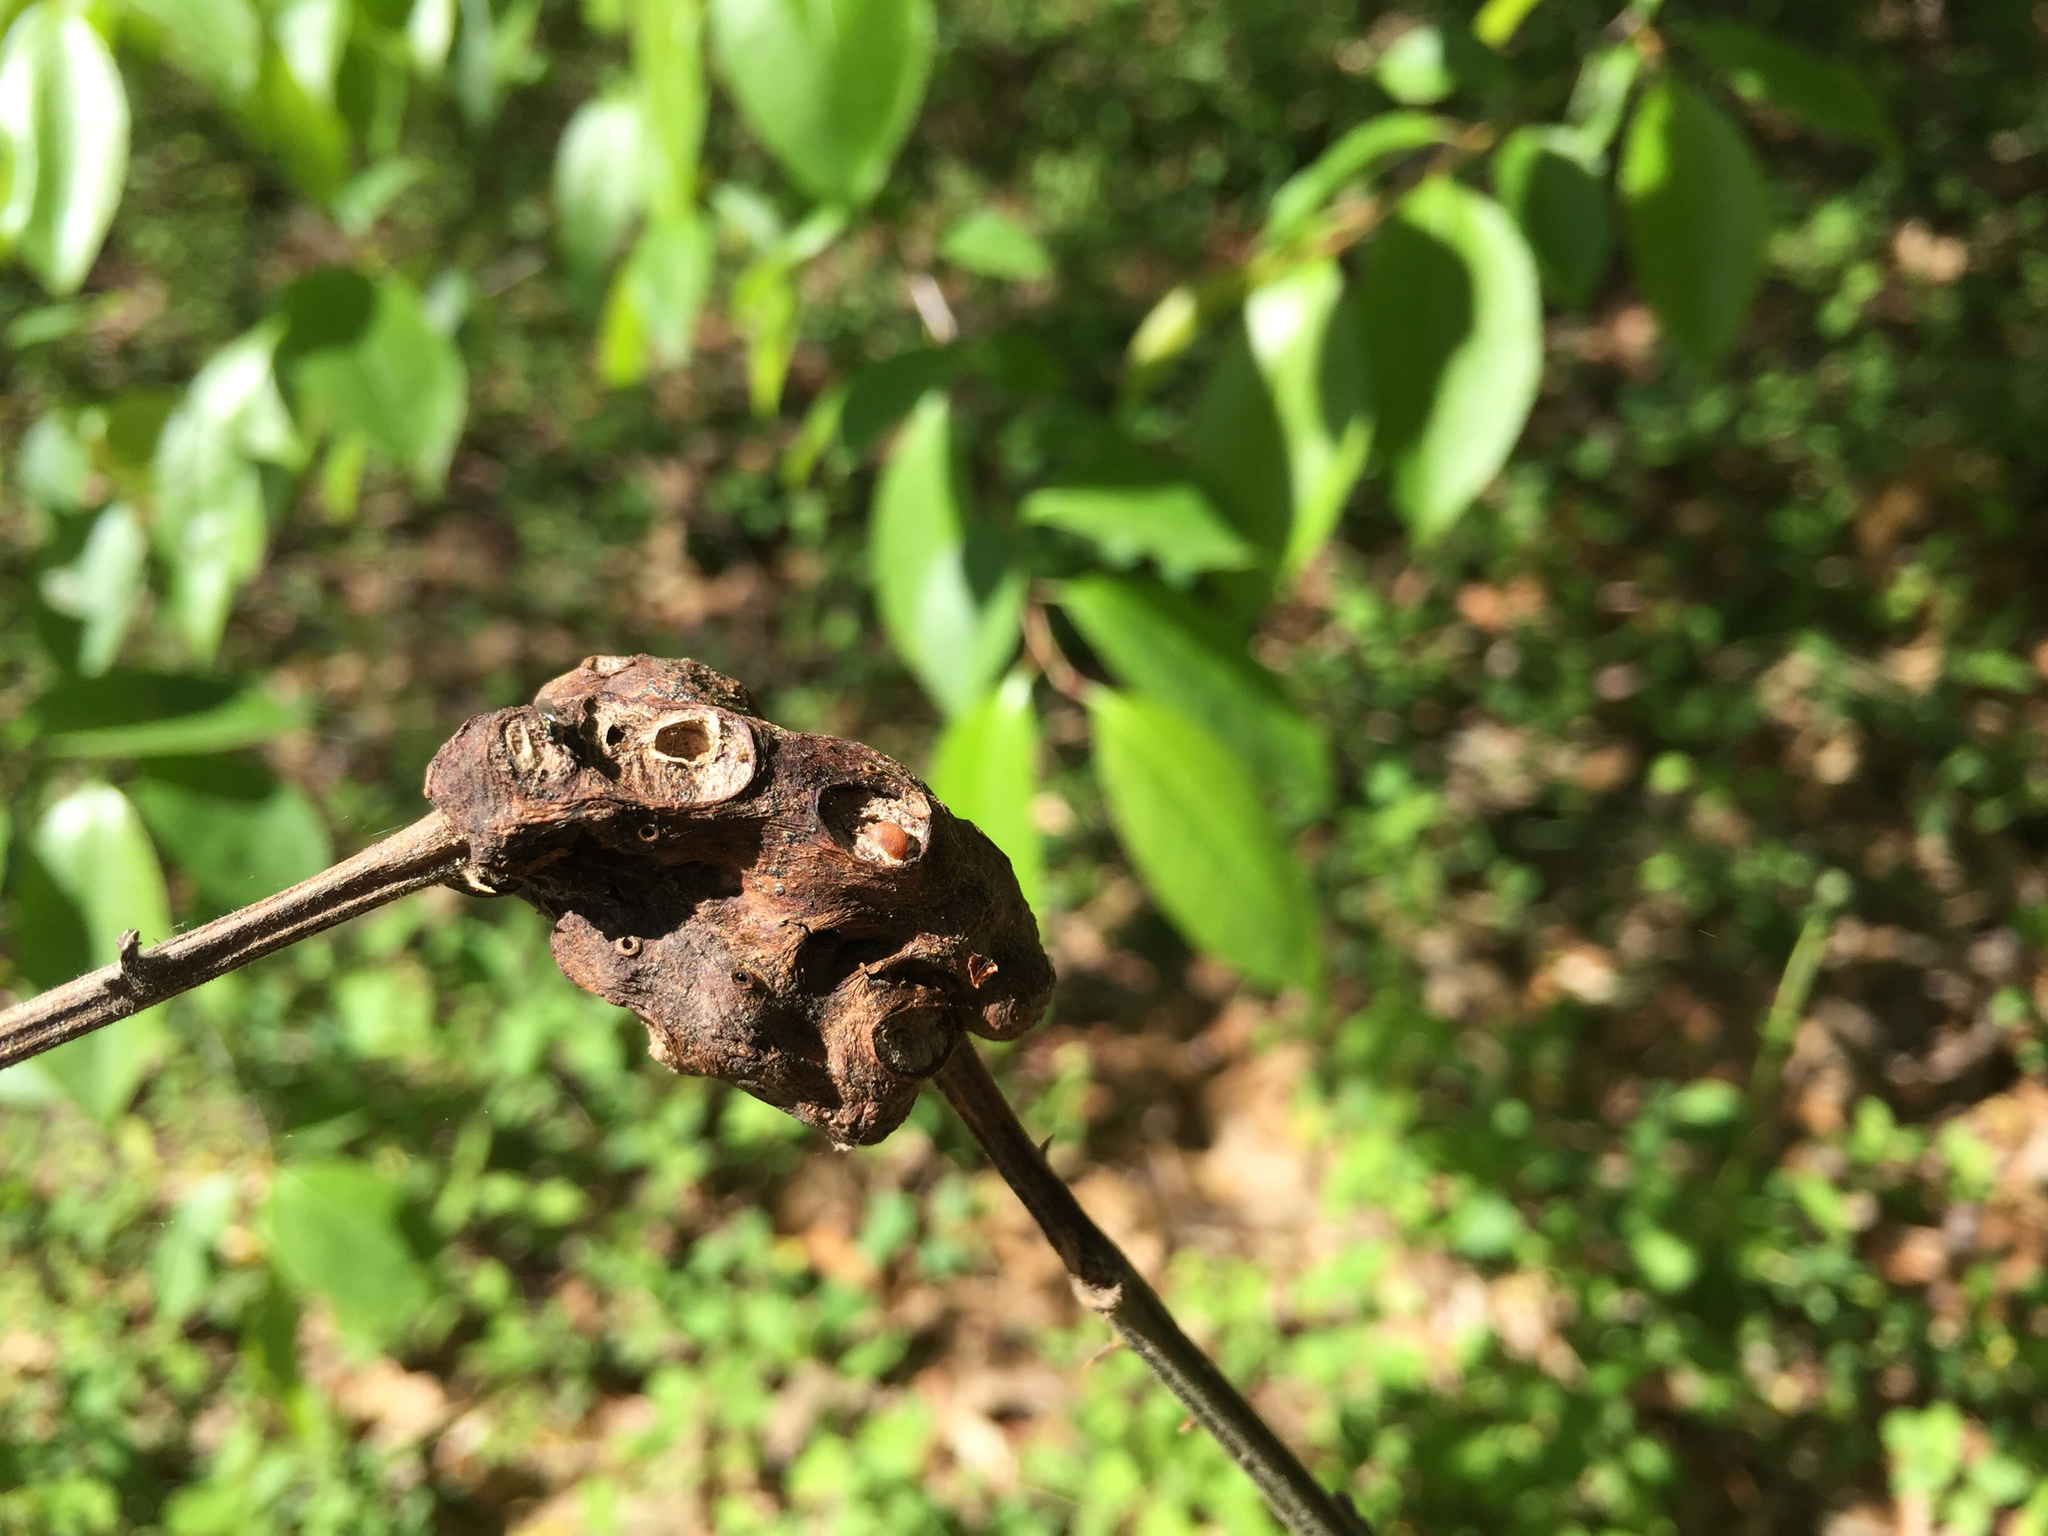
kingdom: Animalia
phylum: Arthropoda
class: Insecta
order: Hymenoptera
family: Cynipidae
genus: Diastrophus
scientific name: Diastrophus
